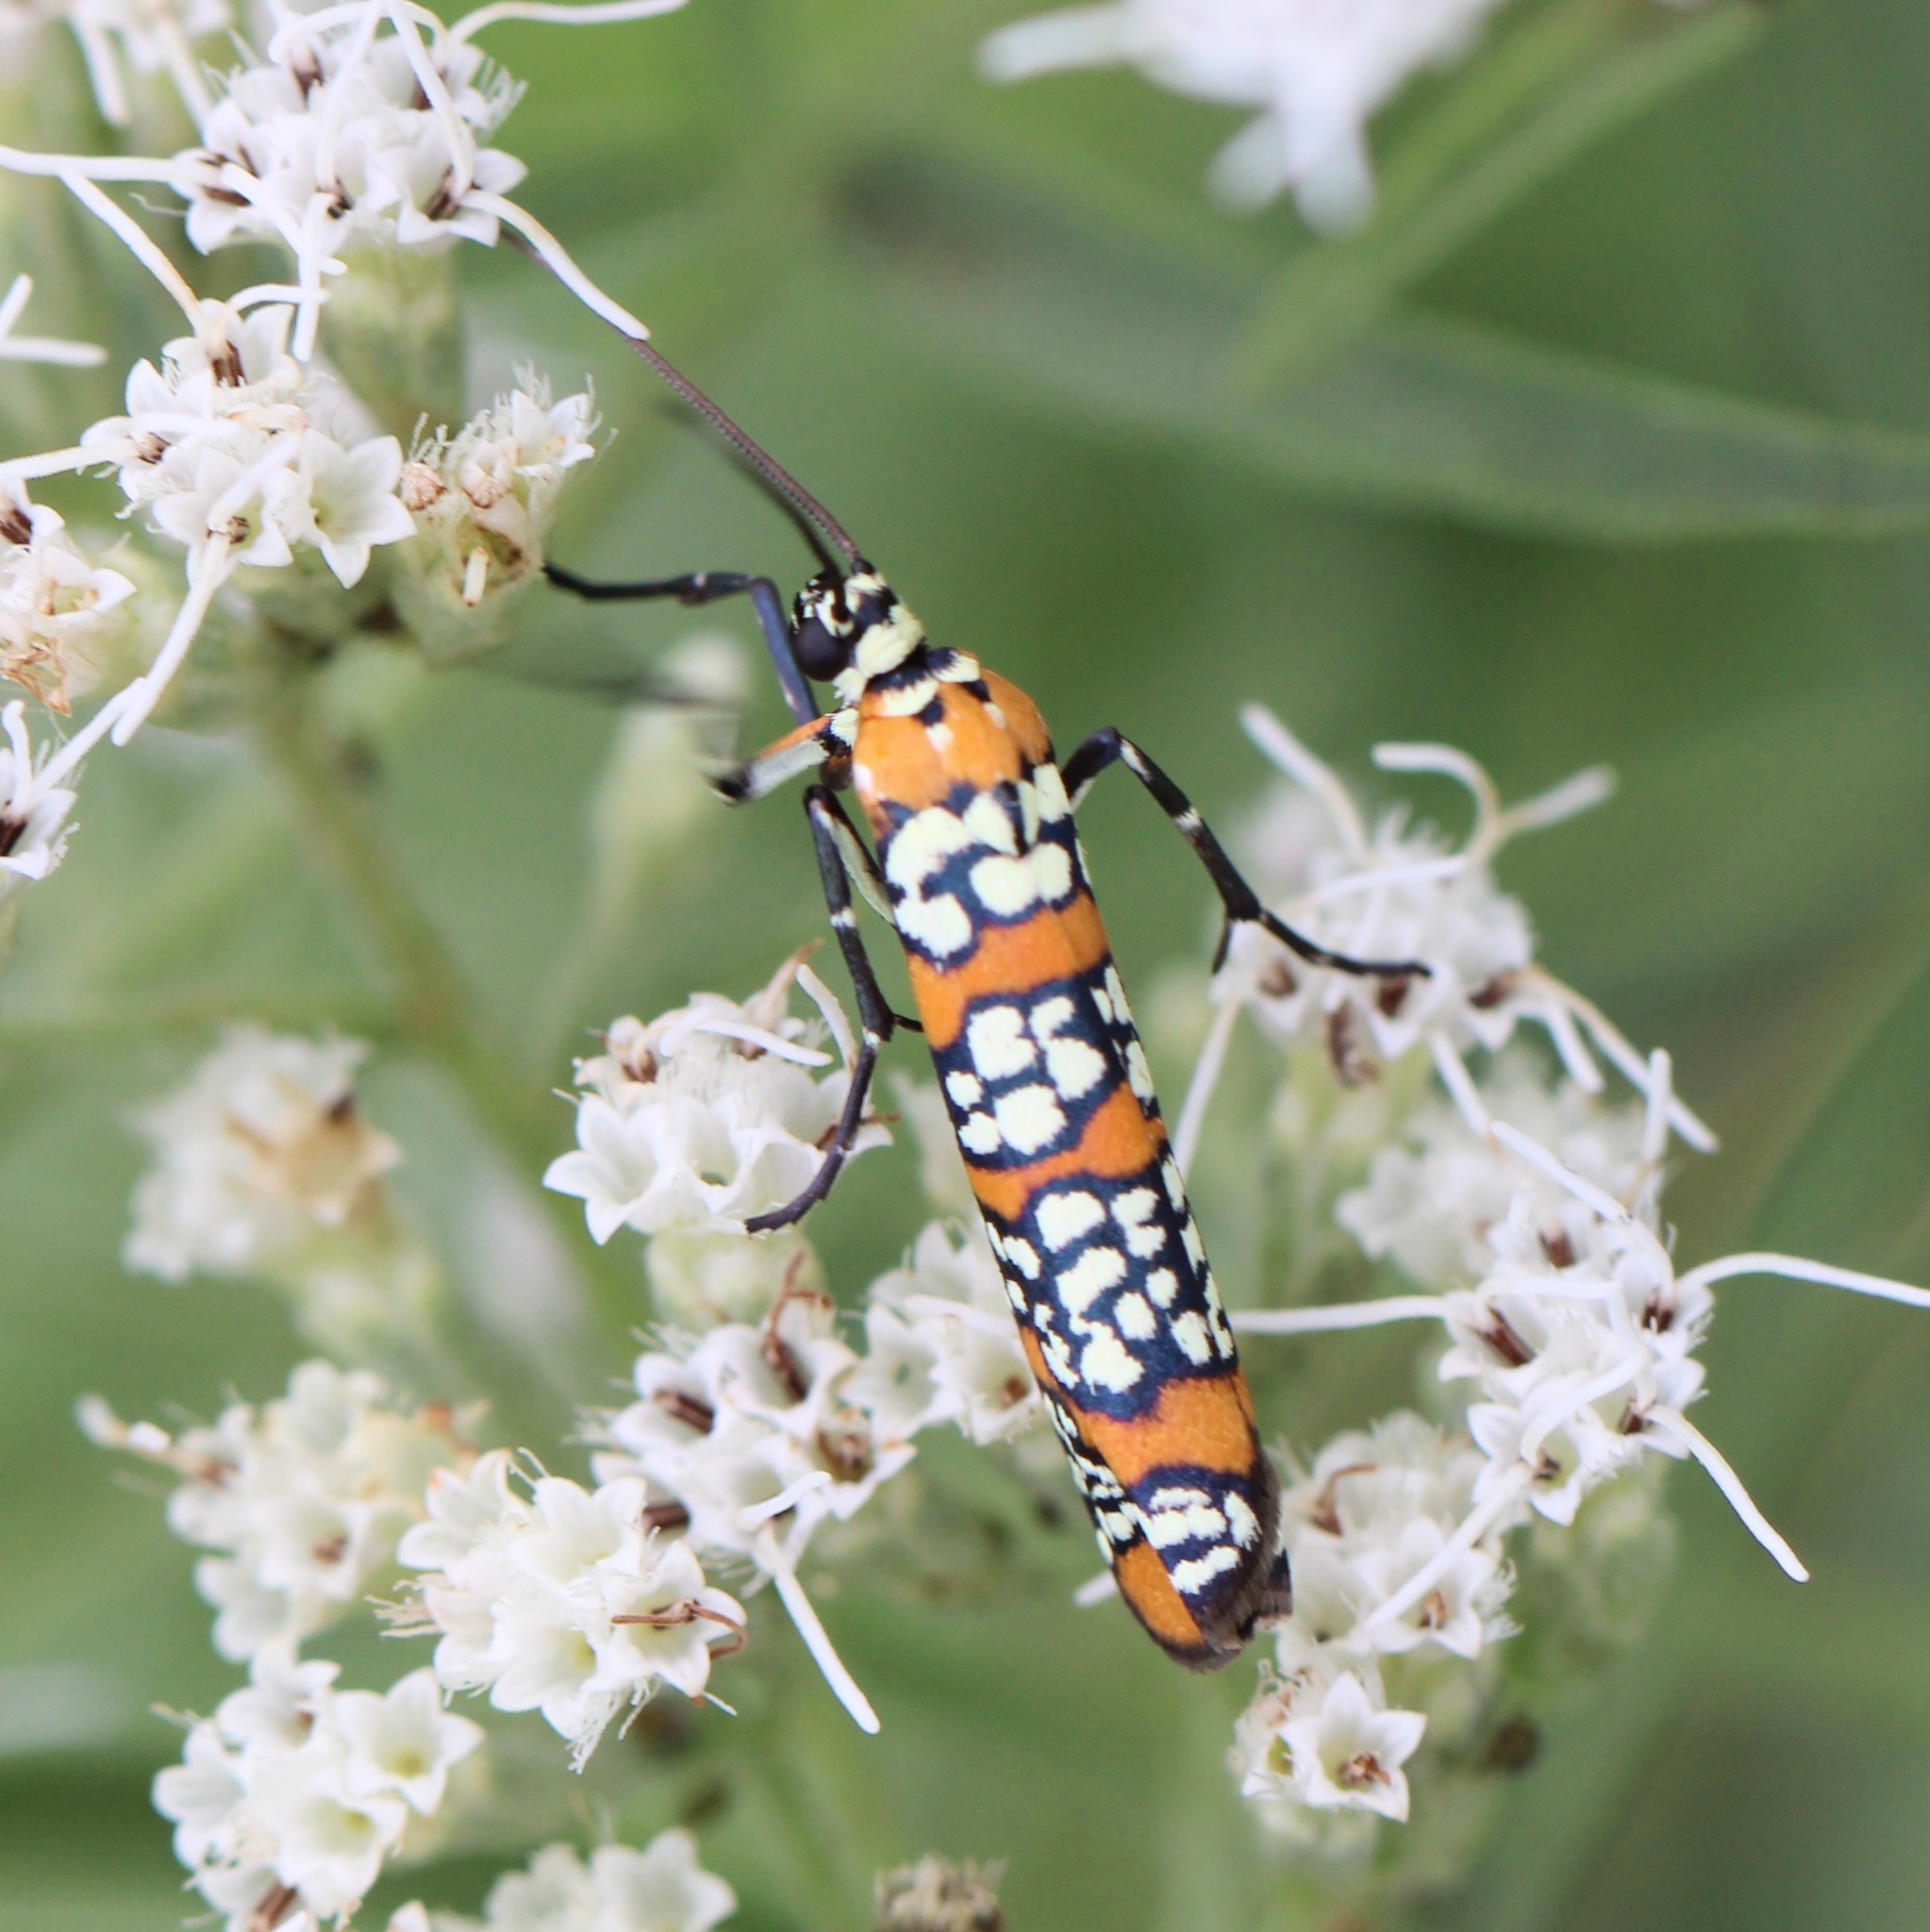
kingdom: Animalia
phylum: Arthropoda
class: Insecta
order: Lepidoptera
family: Attevidae
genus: Atteva
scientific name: Atteva punctella
